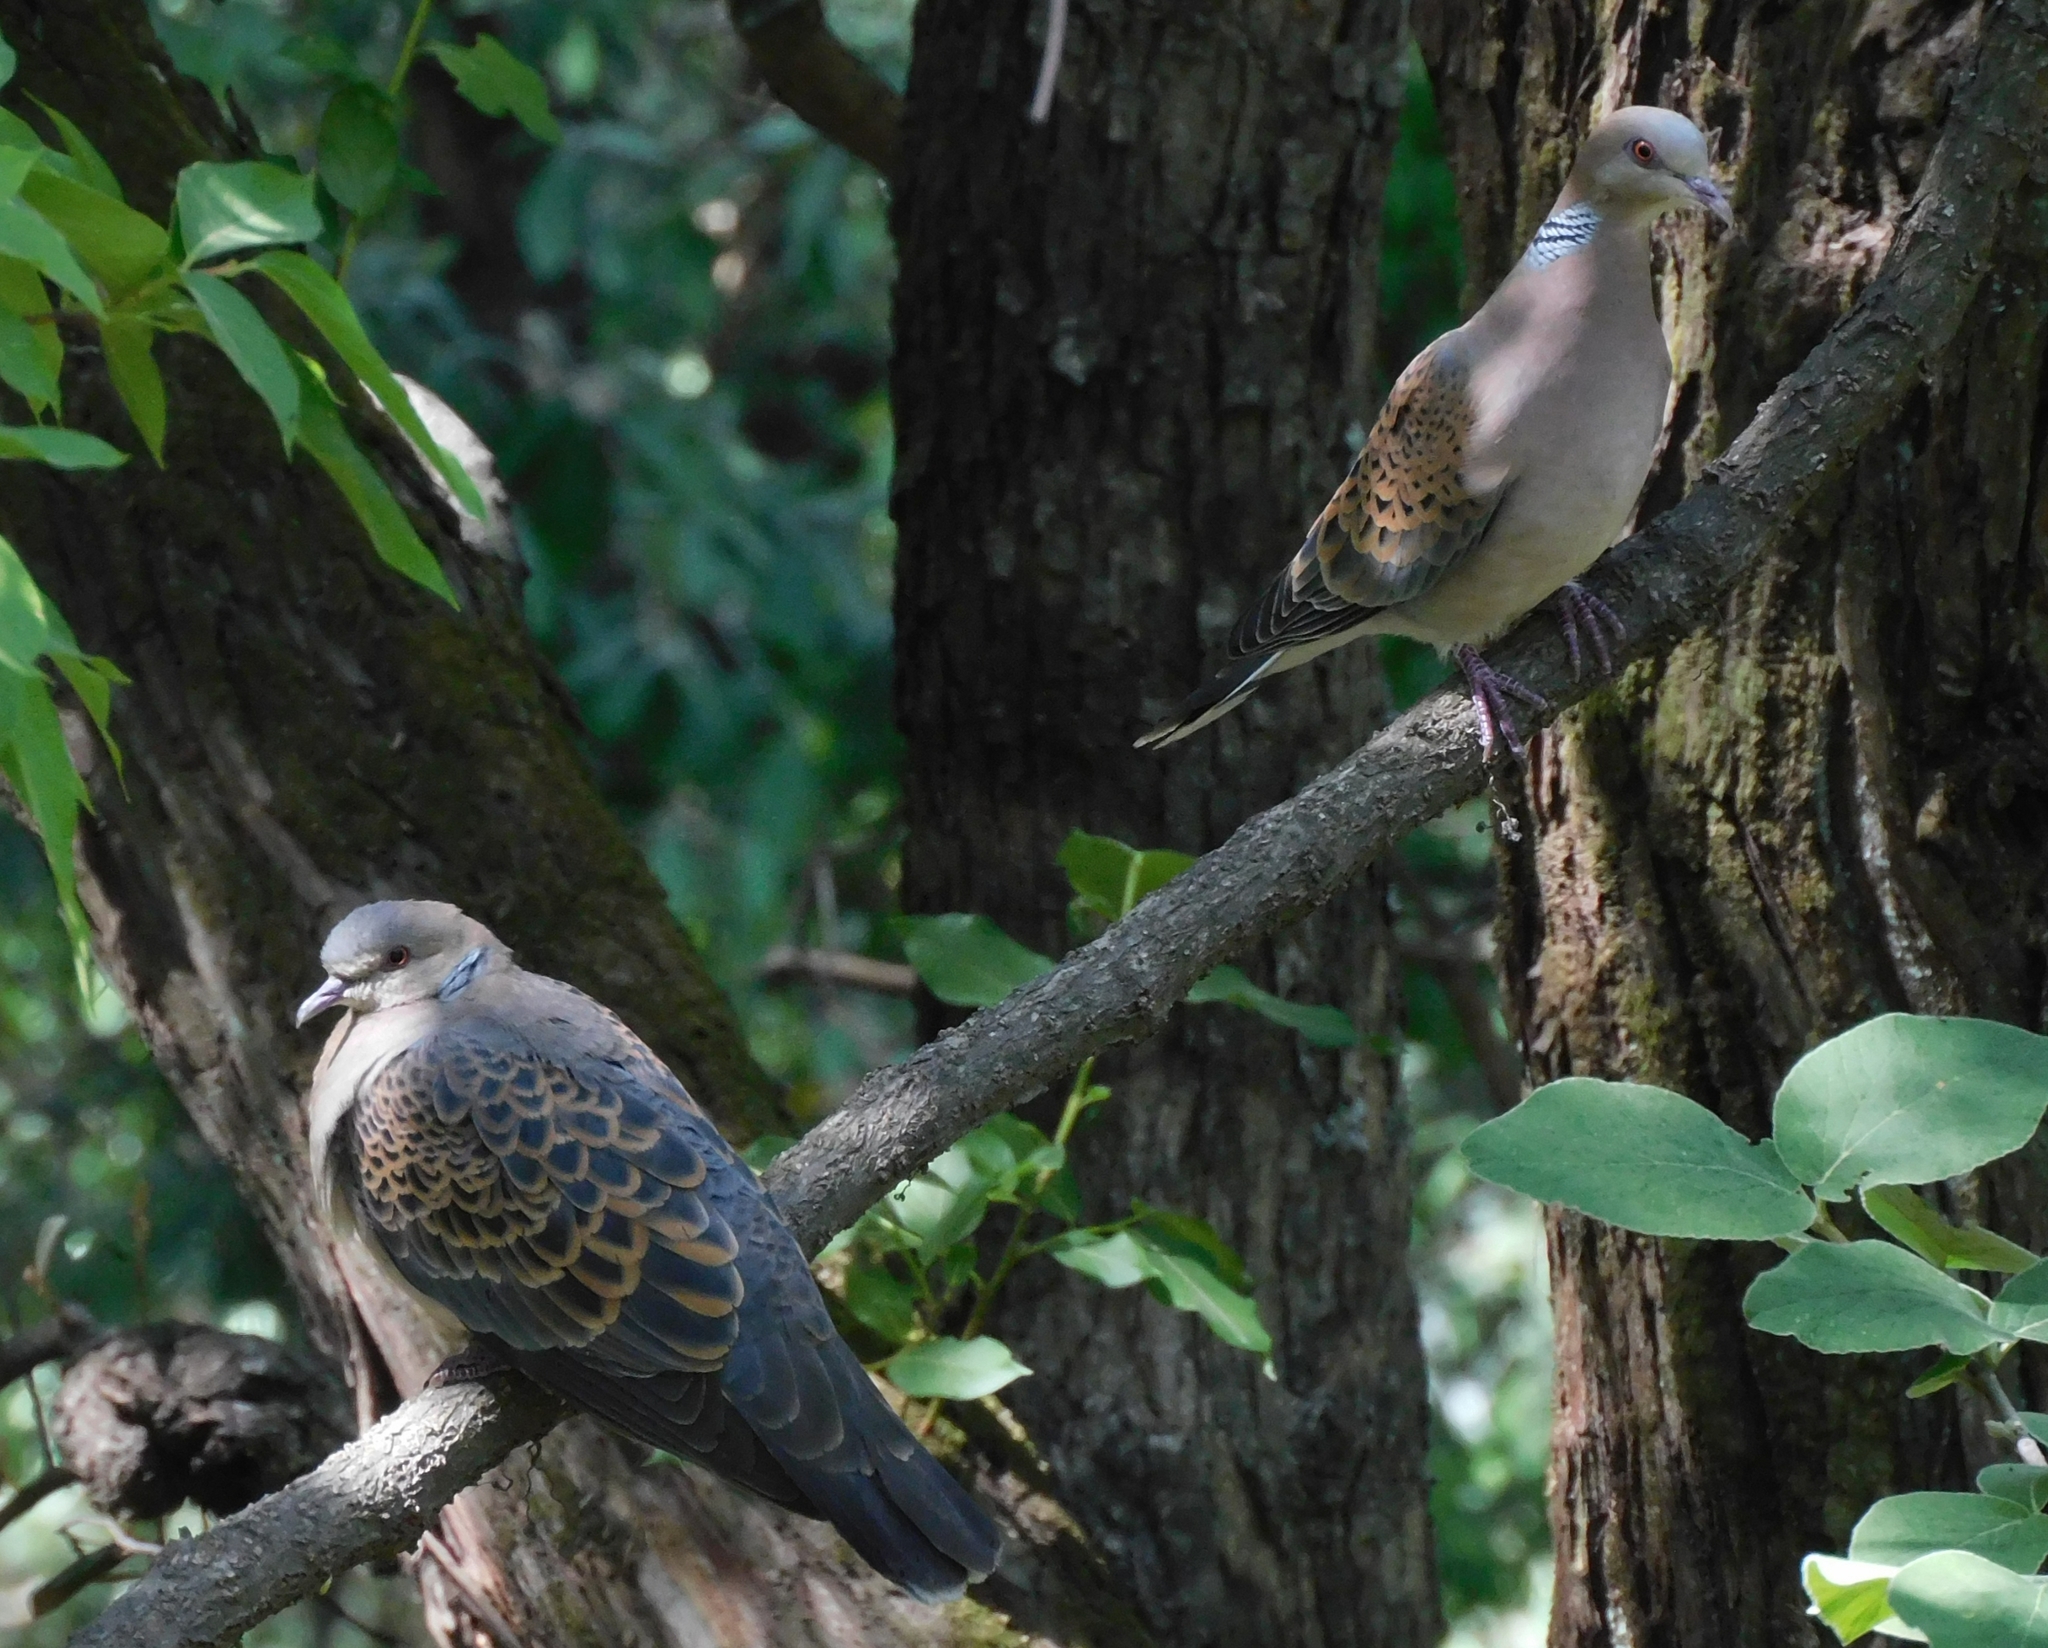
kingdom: Animalia
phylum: Chordata
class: Aves
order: Columbiformes
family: Columbidae
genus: Streptopelia
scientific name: Streptopelia orientalis
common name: Oriental turtle dove
